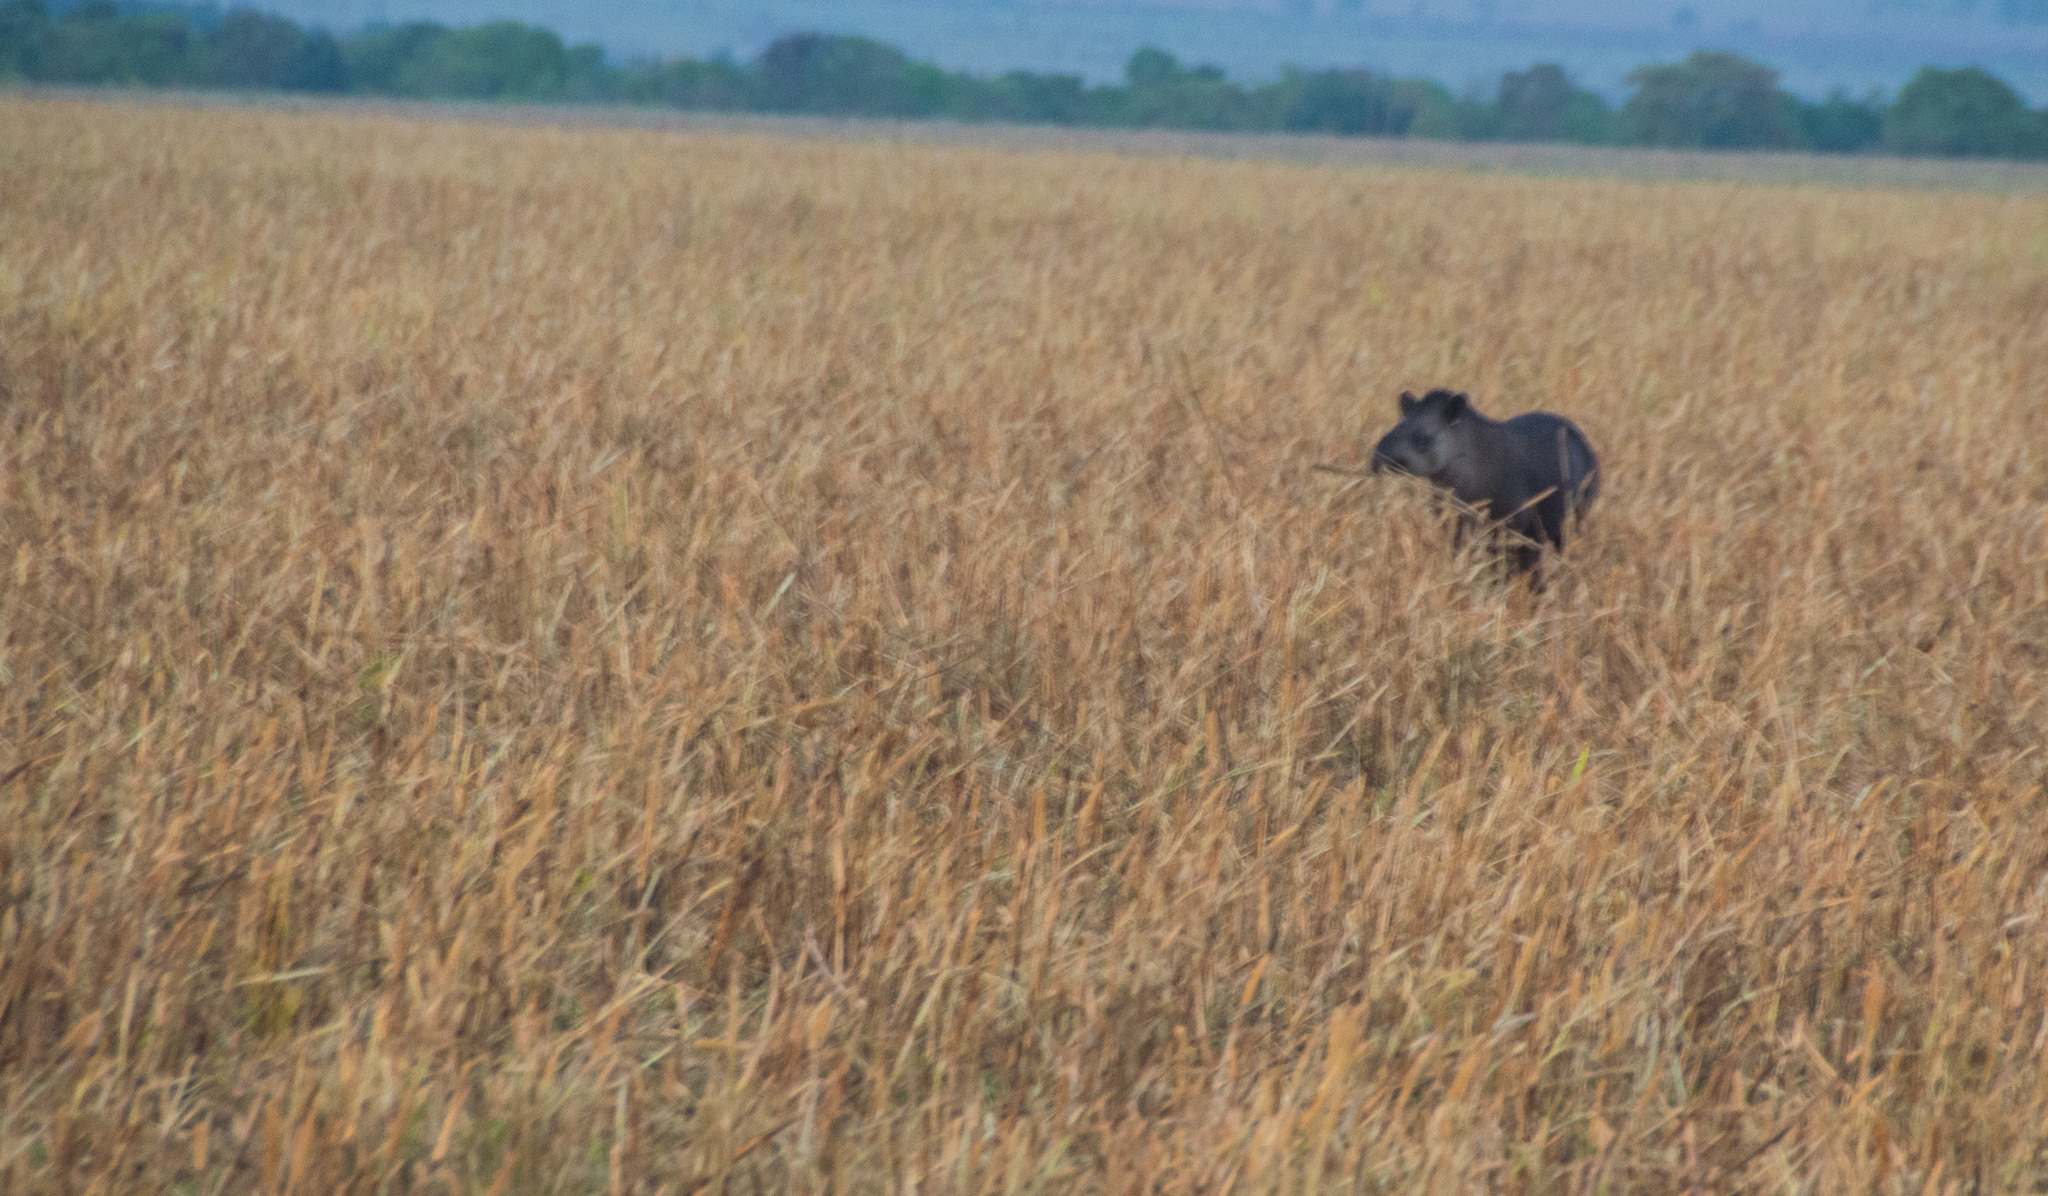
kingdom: Animalia
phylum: Chordata
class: Mammalia
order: Perissodactyla
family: Tapiridae
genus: Tapirus
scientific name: Tapirus terrestris
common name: Brazilian tapir
